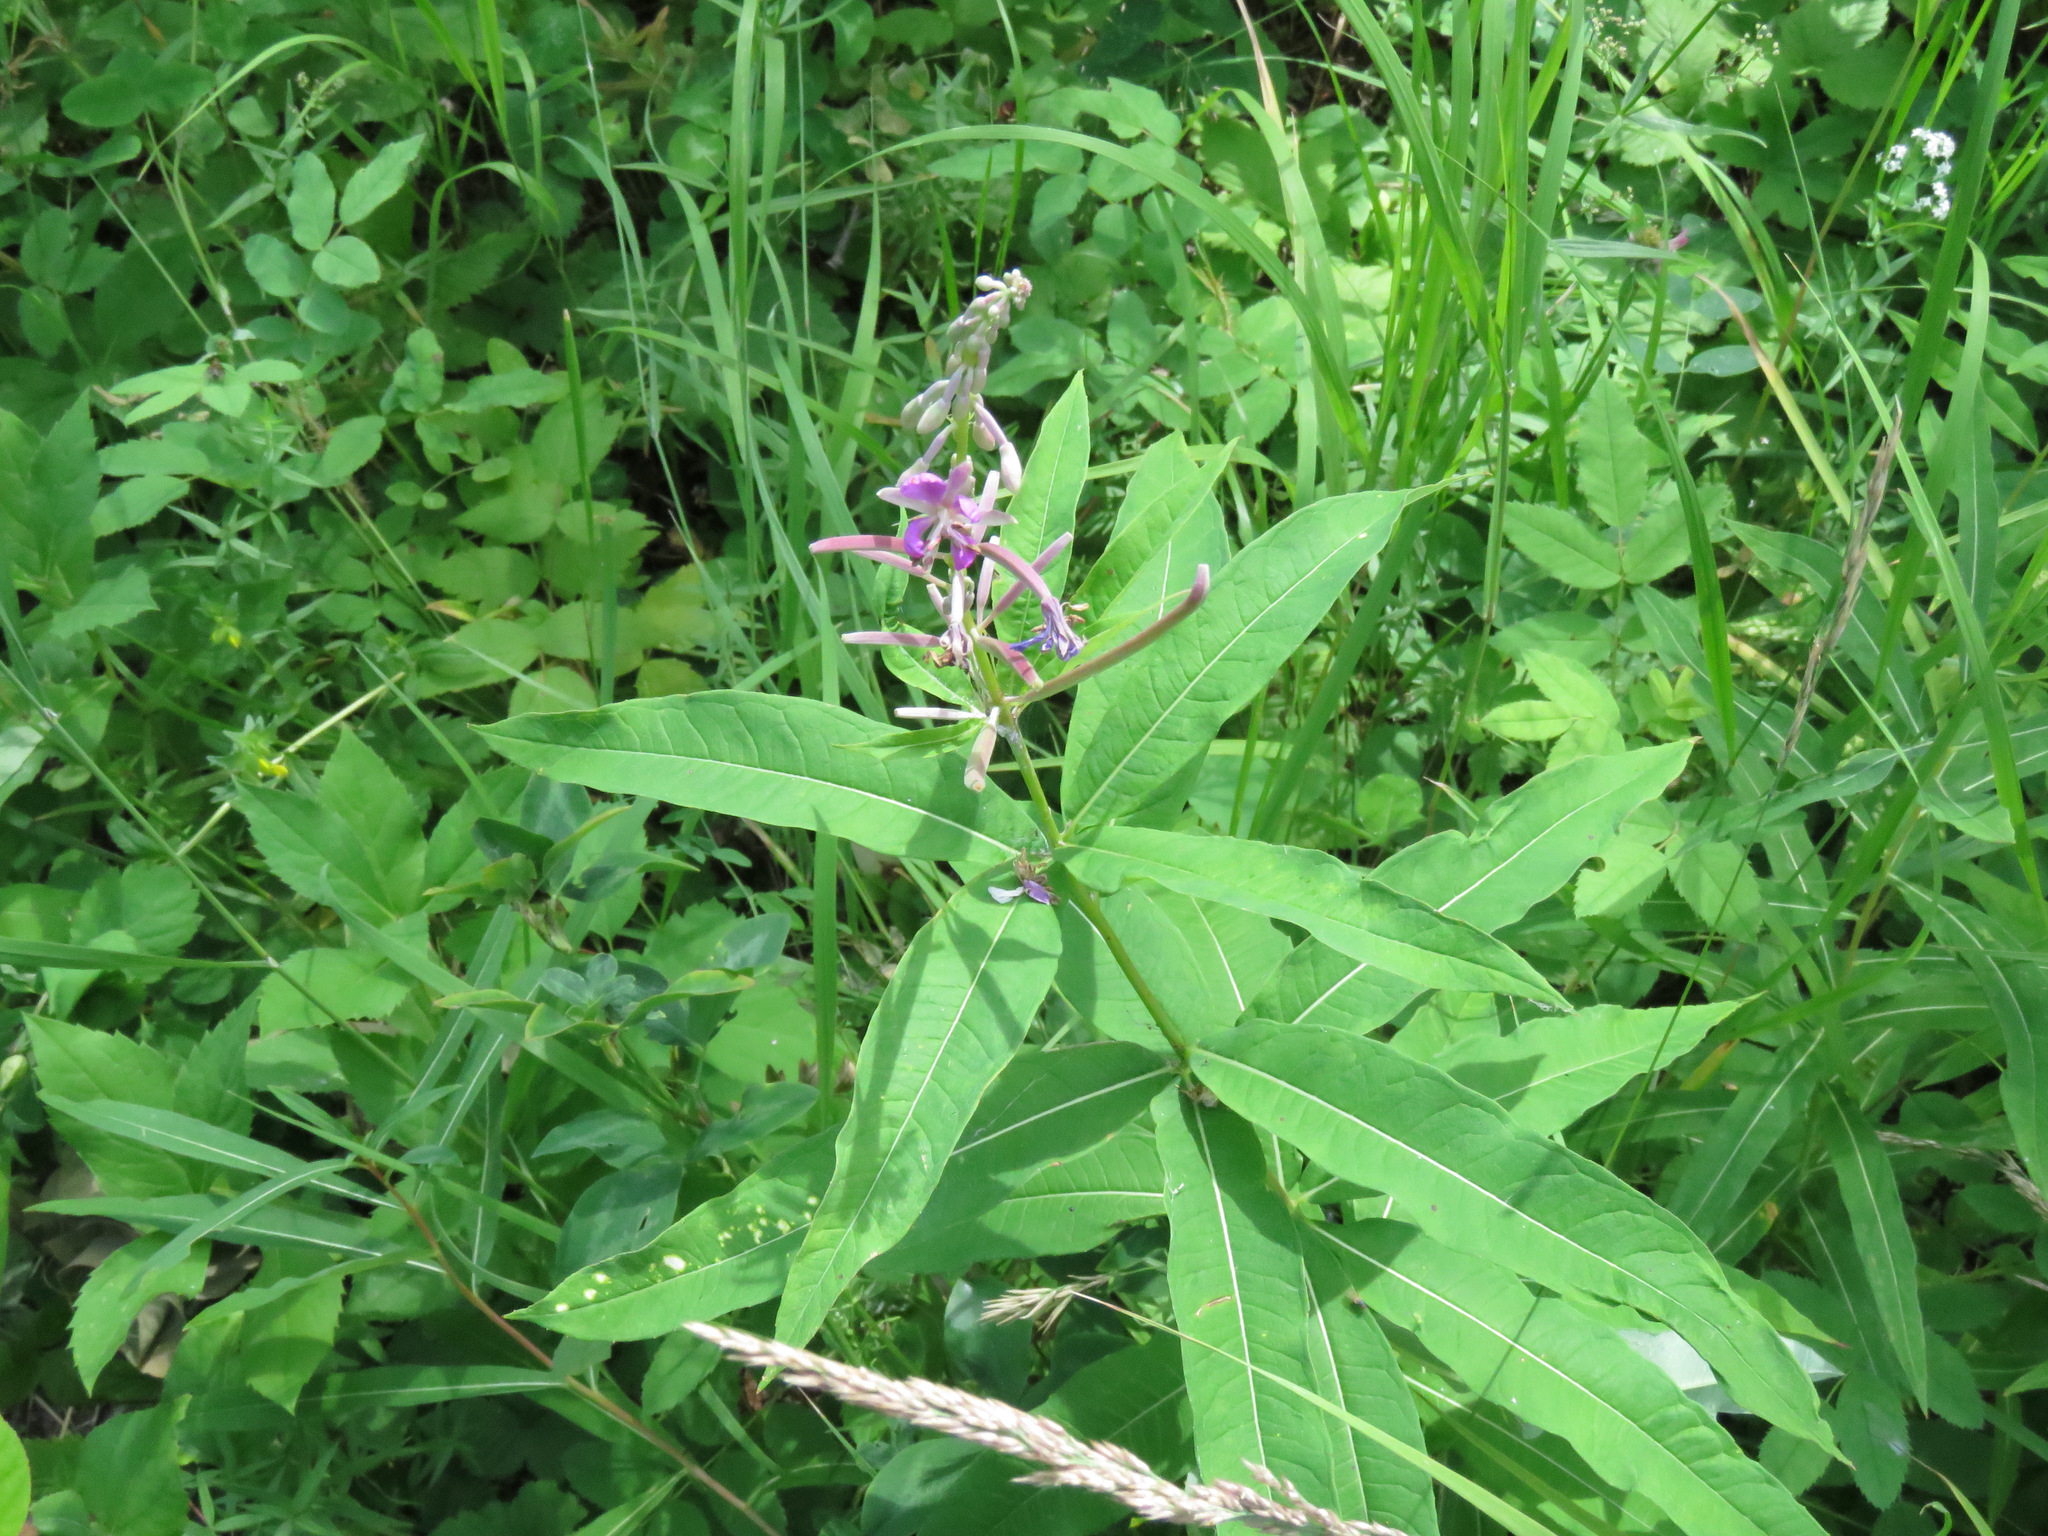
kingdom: Plantae
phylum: Tracheophyta
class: Magnoliopsida
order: Myrtales
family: Onagraceae
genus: Chamaenerion
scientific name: Chamaenerion angustifolium
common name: Fireweed
